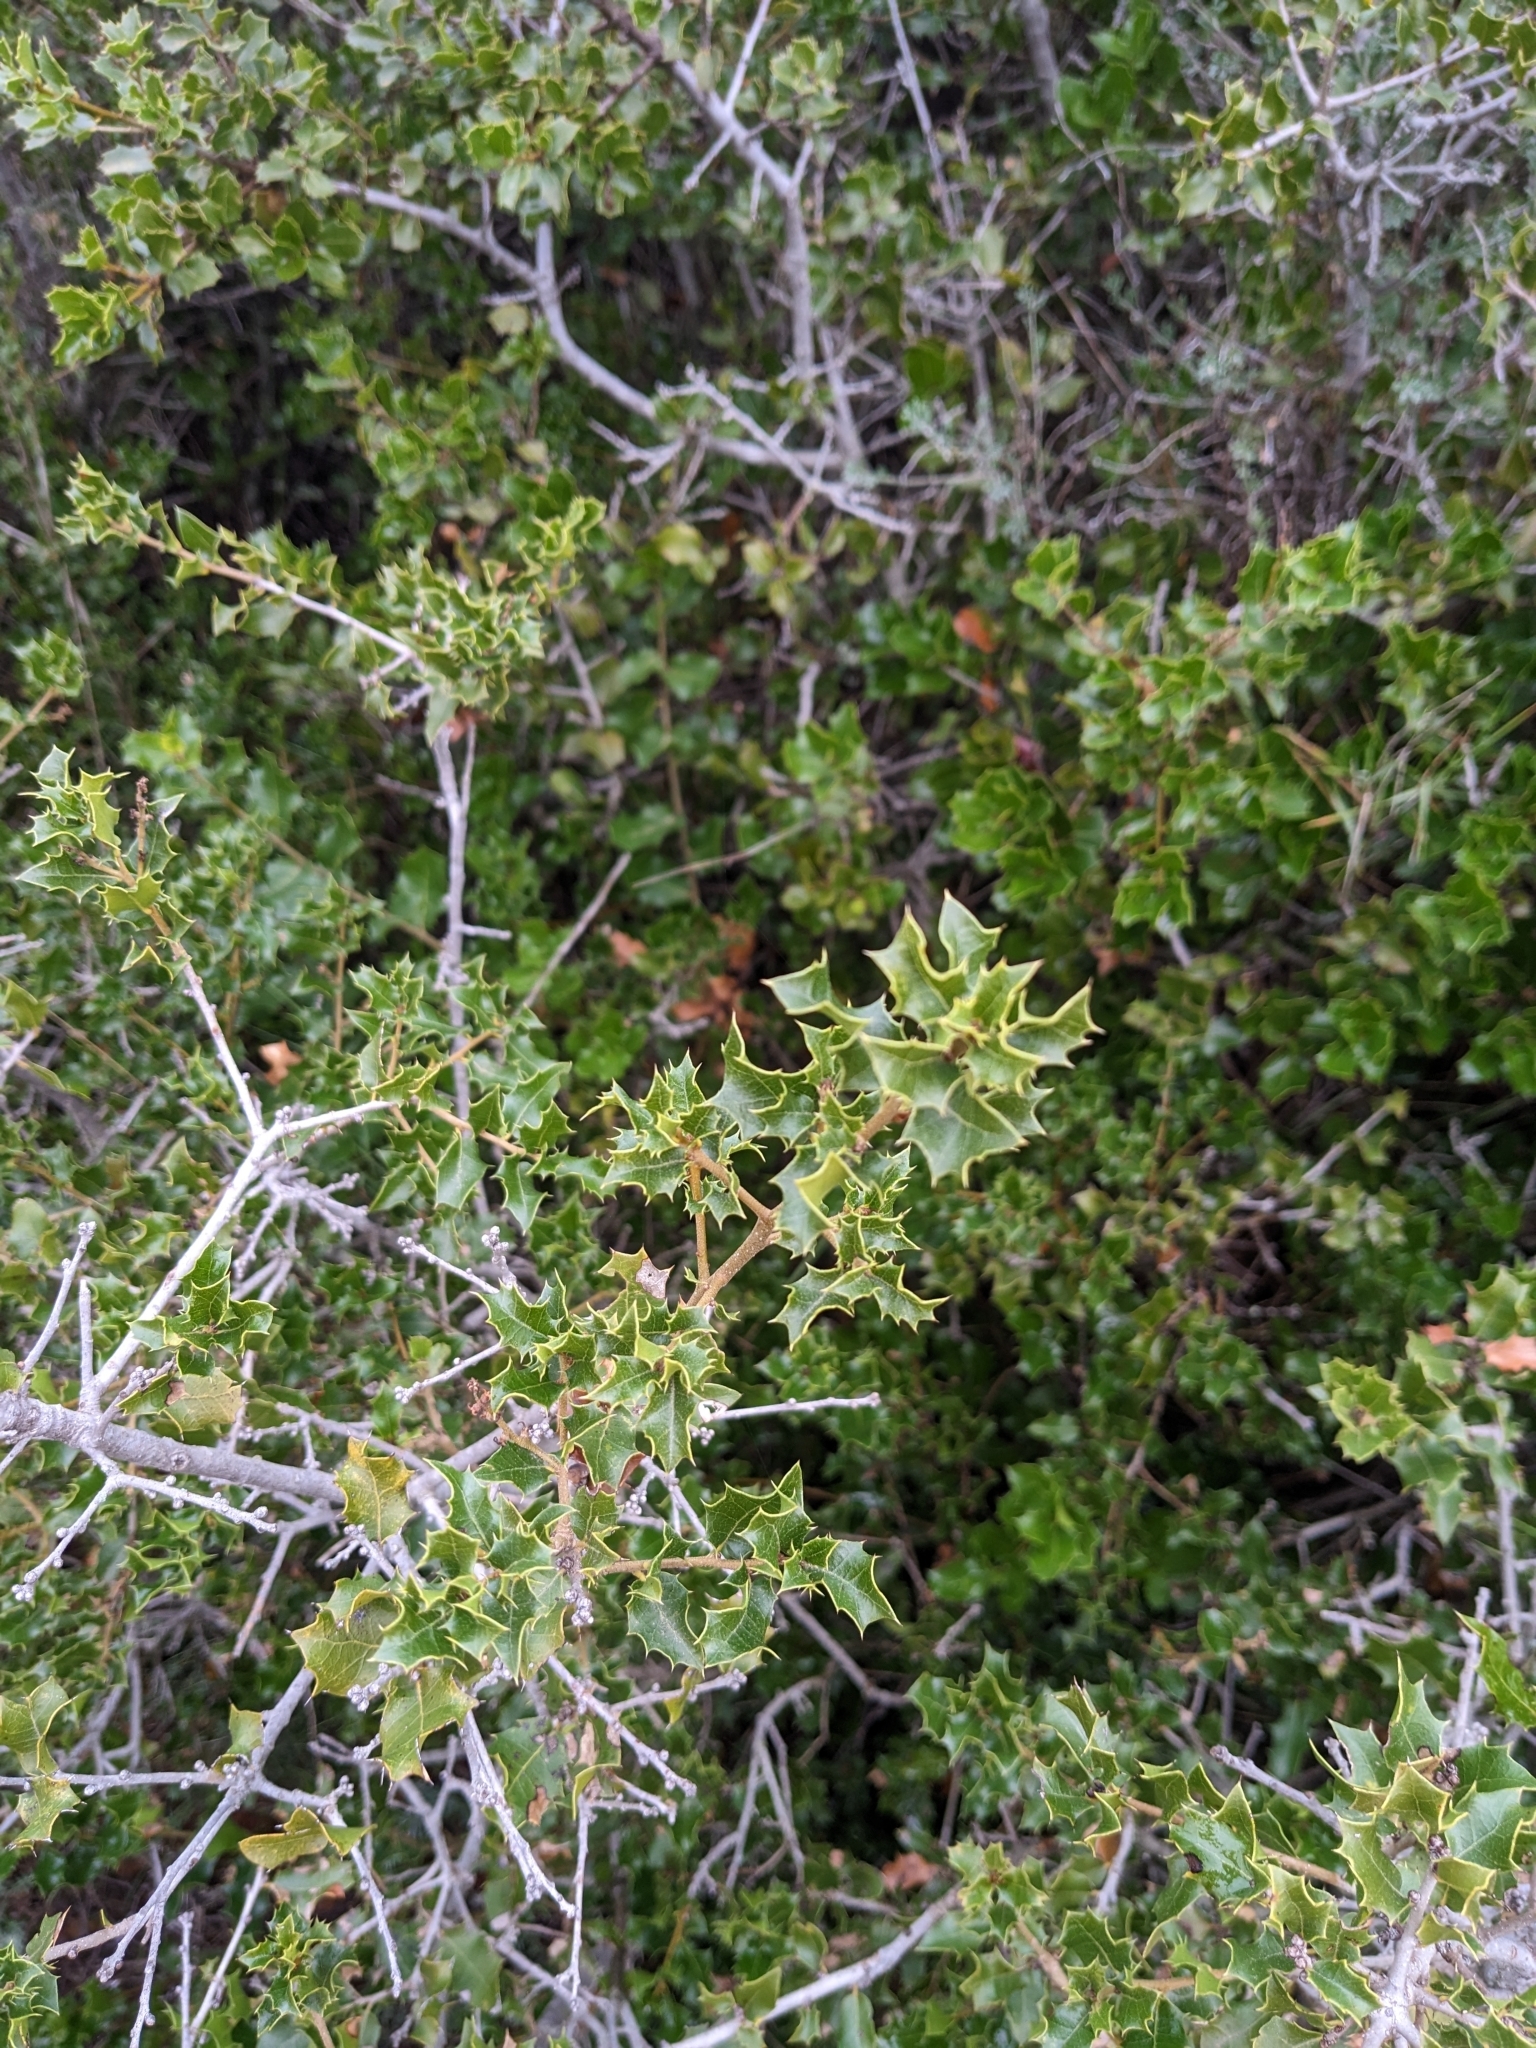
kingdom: Plantae
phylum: Tracheophyta
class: Magnoliopsida
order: Fagales
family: Fagaceae
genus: Quercus
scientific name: Quercus coccifera
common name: Kermes oak
